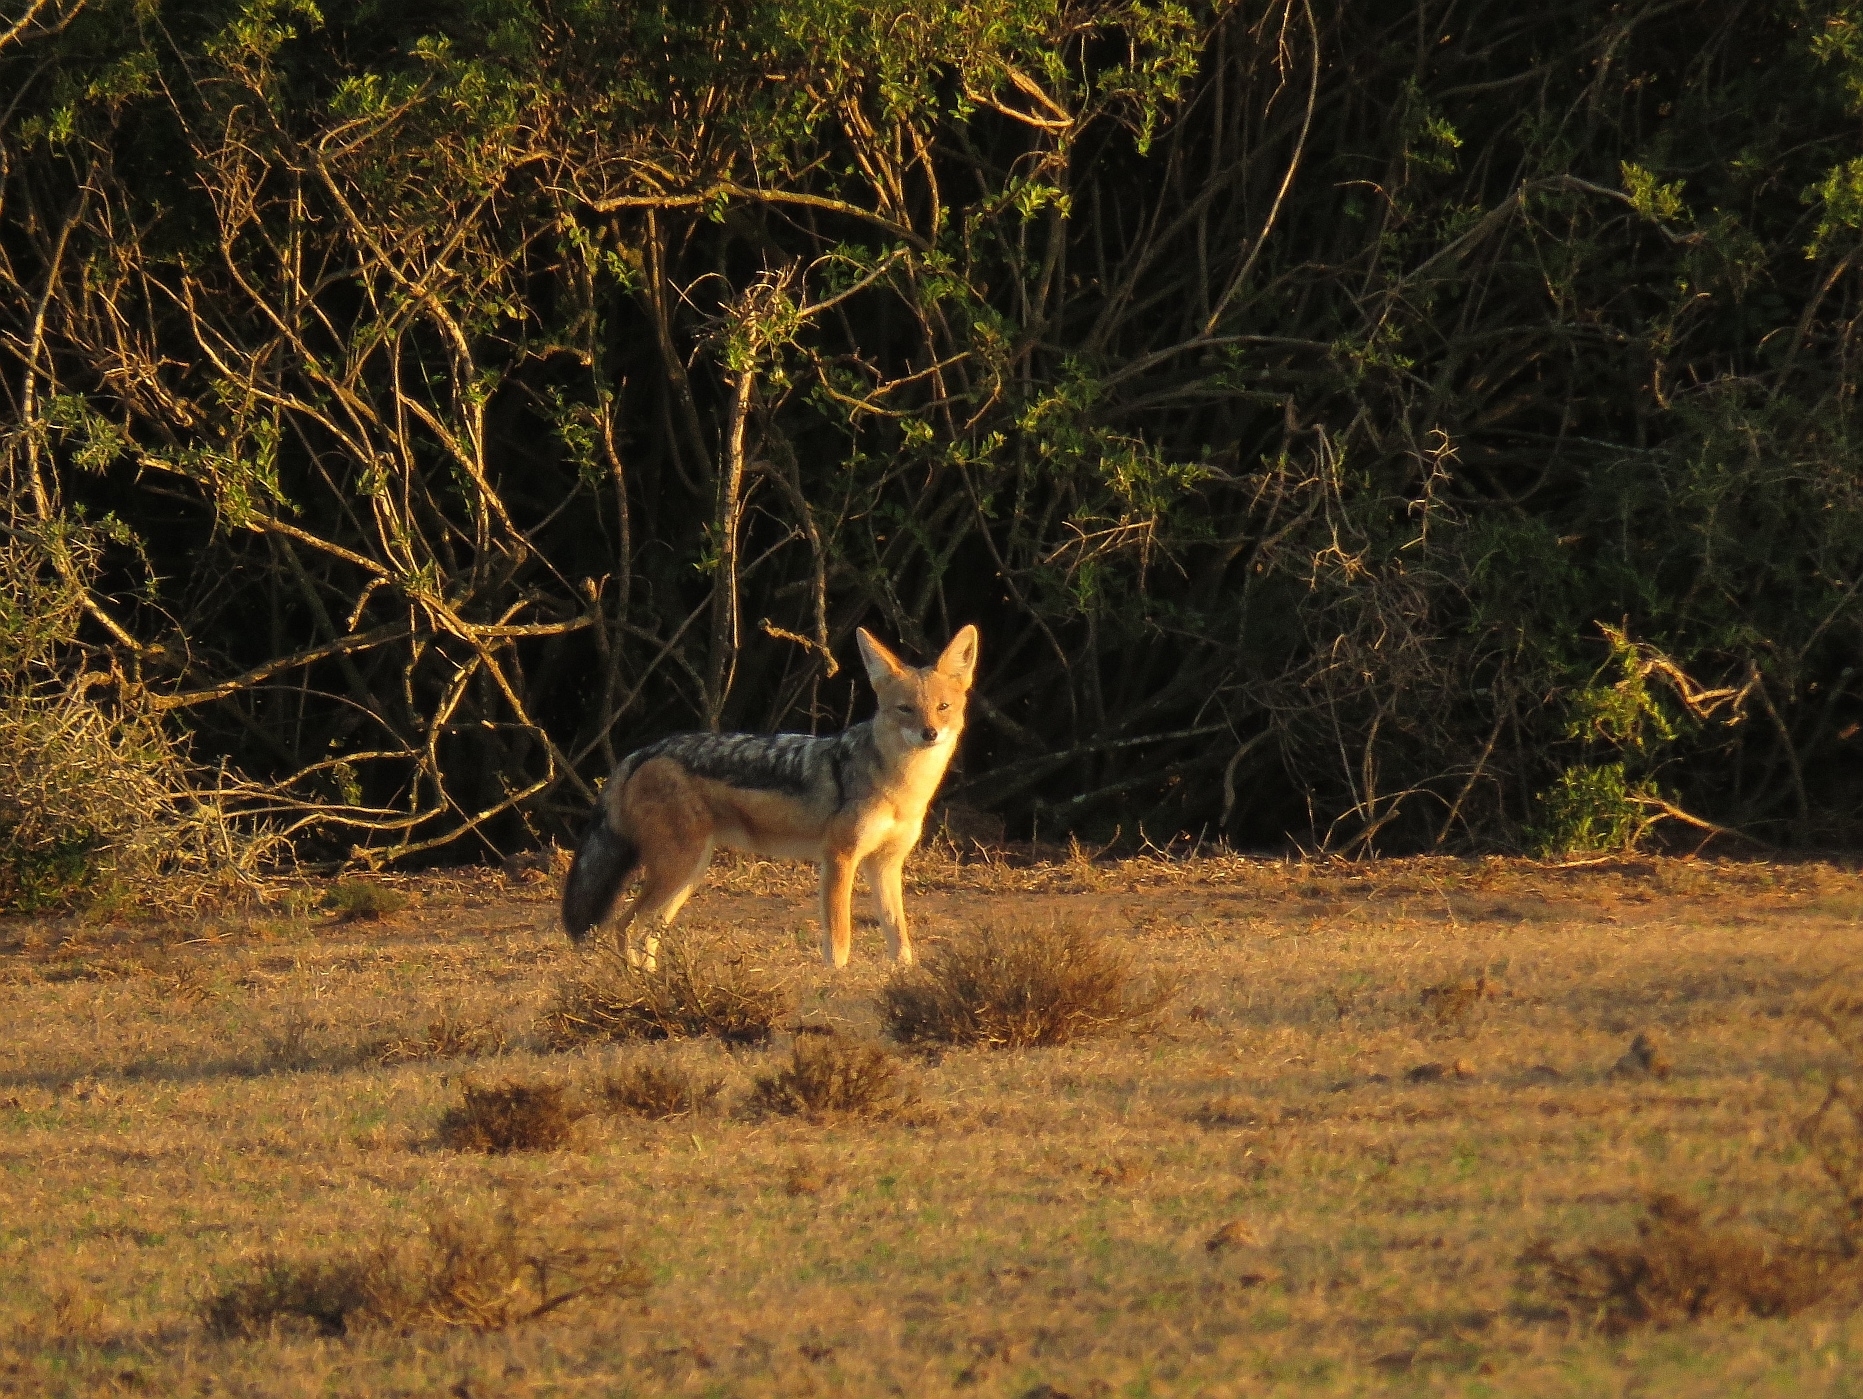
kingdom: Animalia
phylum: Chordata
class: Mammalia
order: Carnivora
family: Canidae
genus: Lupulella
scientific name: Lupulella
